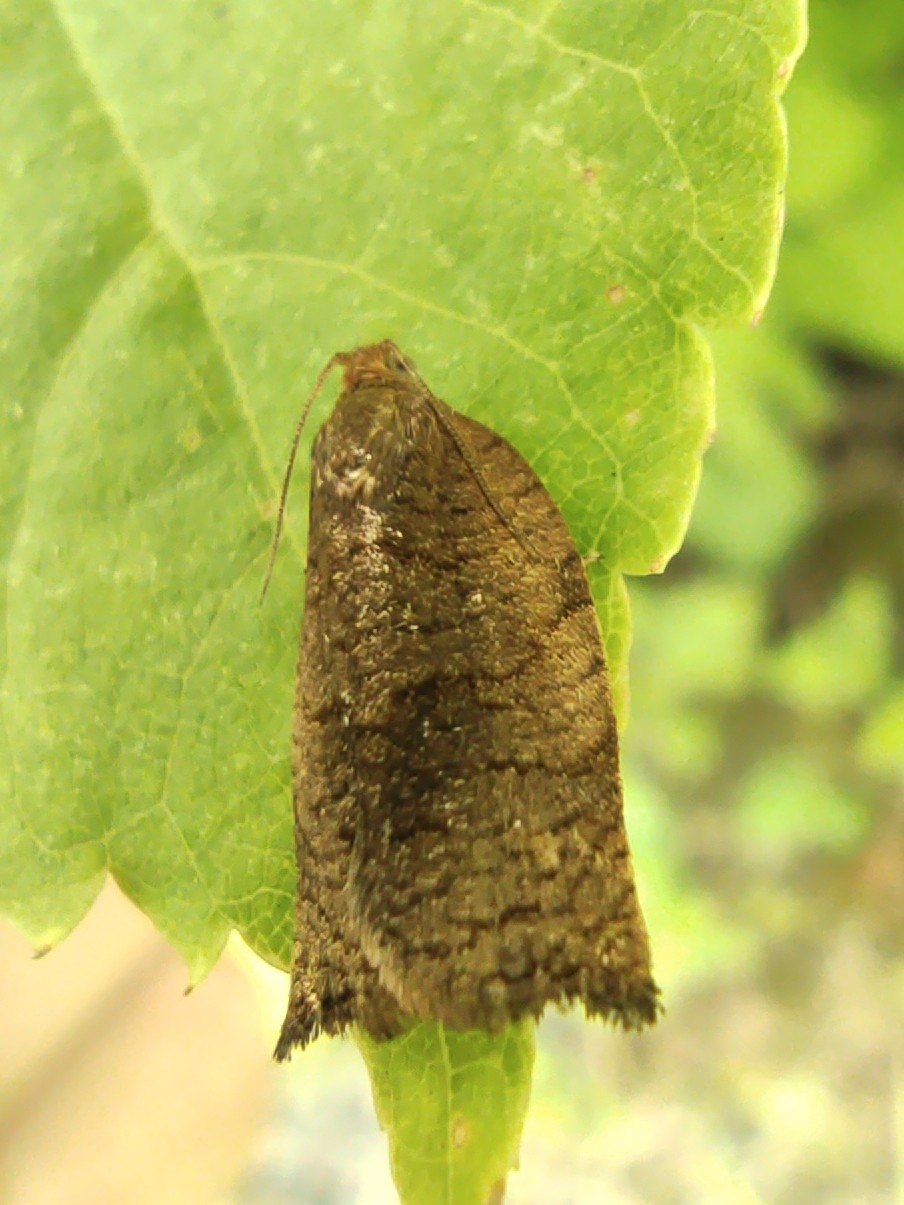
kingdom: Animalia
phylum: Arthropoda
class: Insecta
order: Lepidoptera
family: Tortricidae
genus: Archips
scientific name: Archips rosana
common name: Rose tortrix
